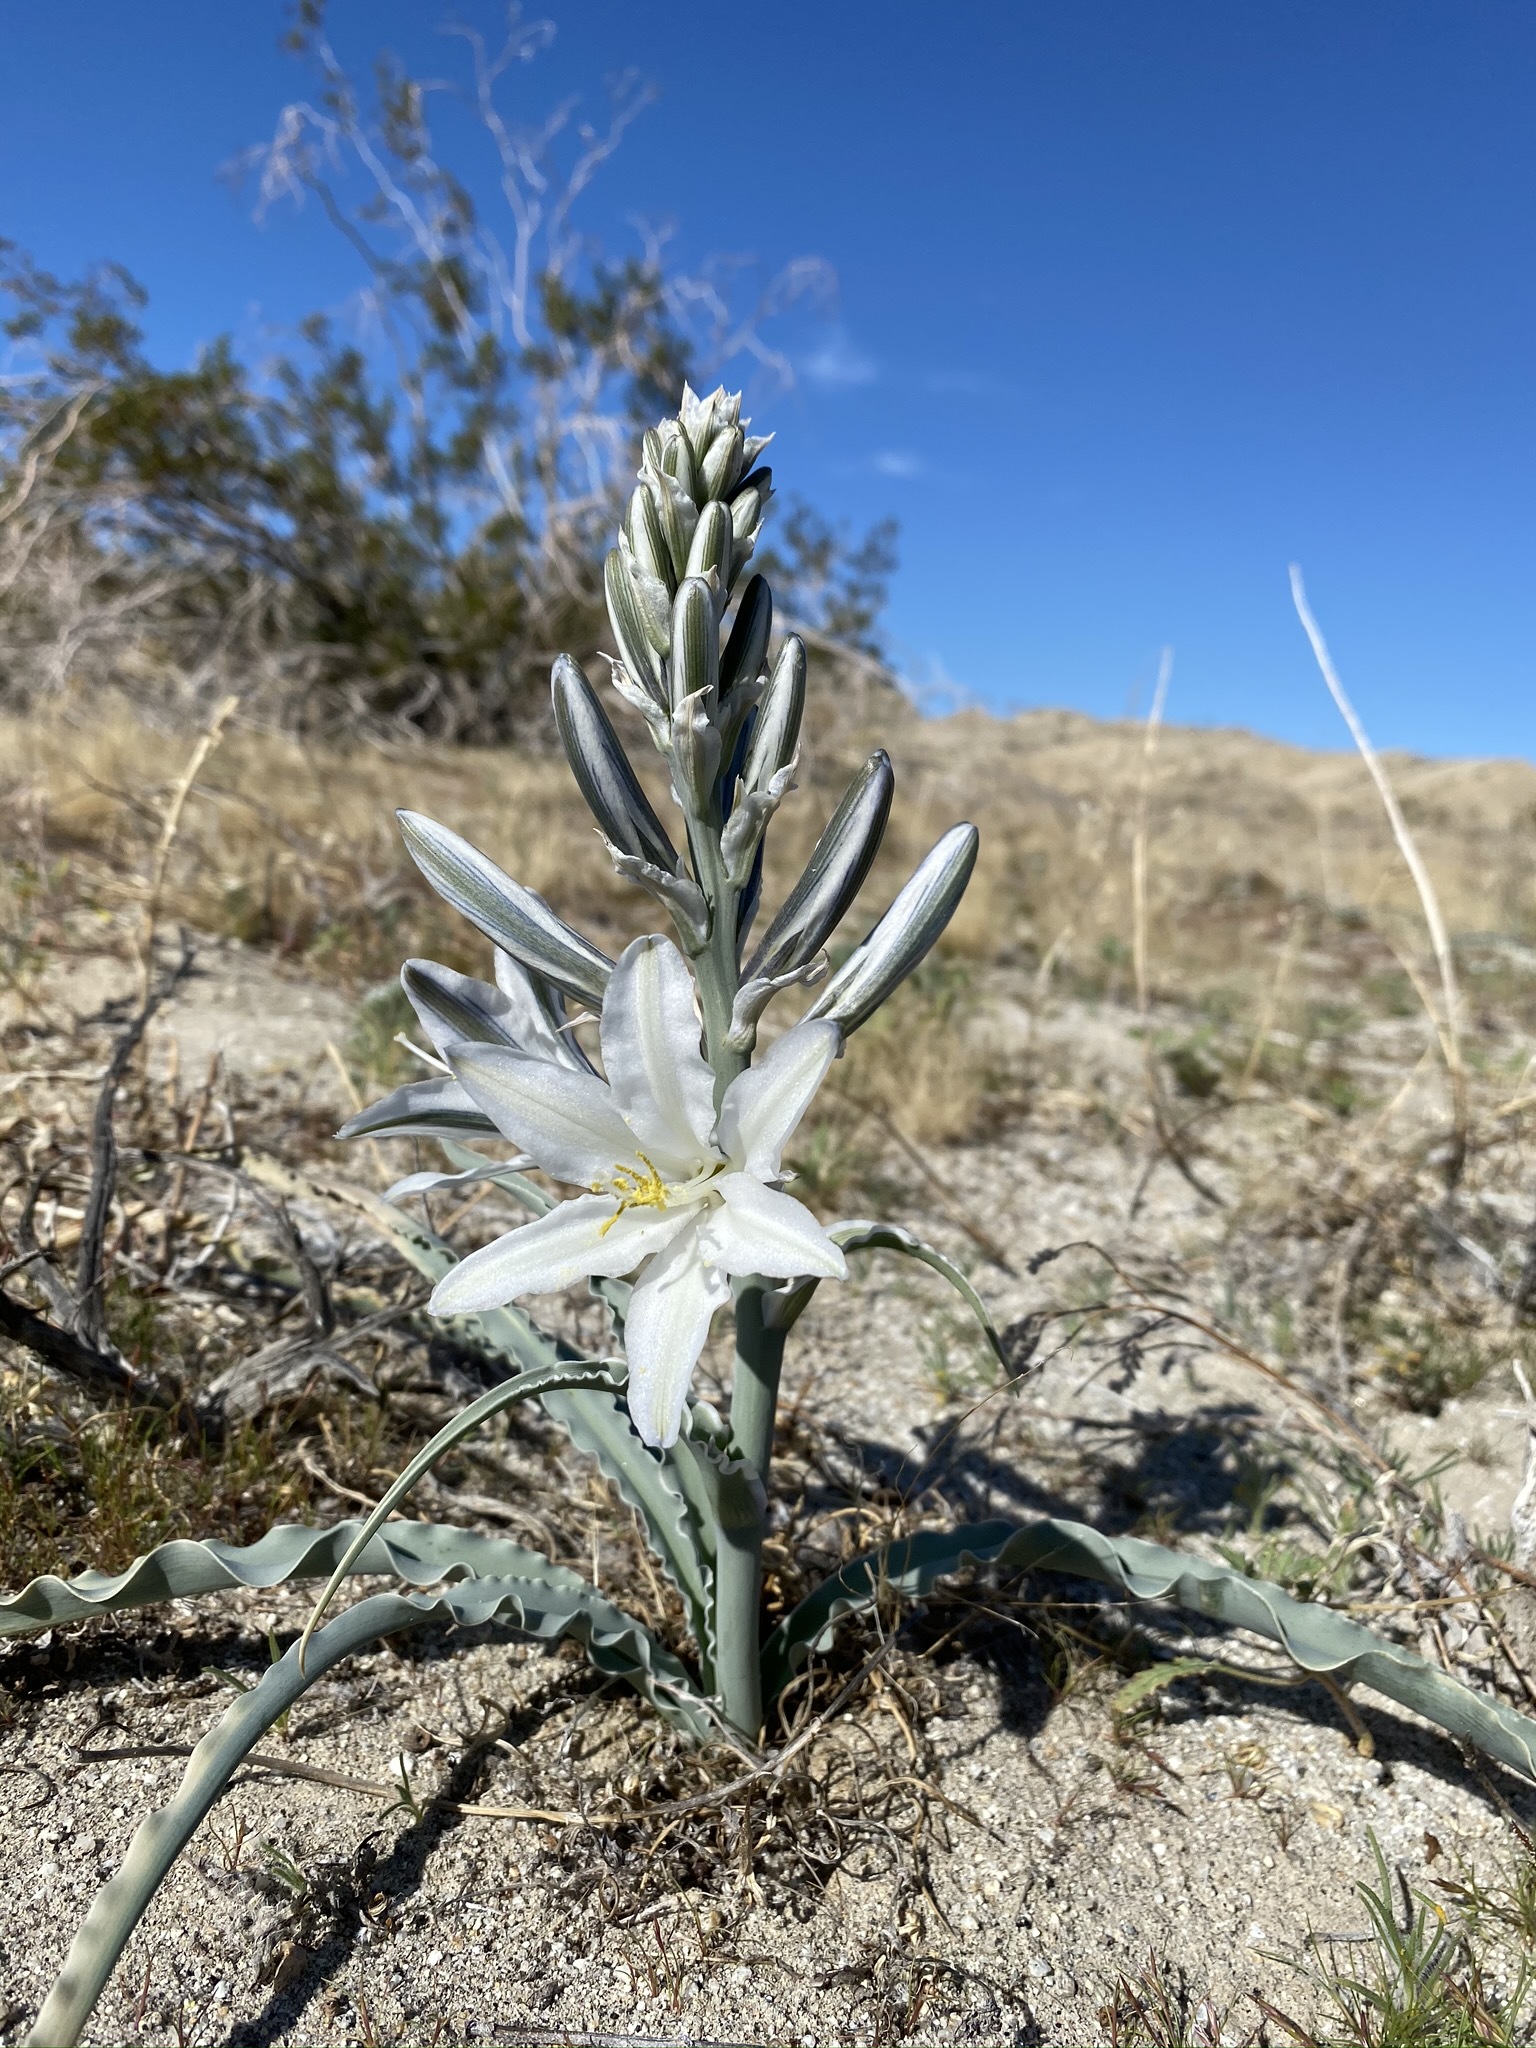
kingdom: Plantae
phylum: Tracheophyta
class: Liliopsida
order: Asparagales
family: Asparagaceae
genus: Hesperocallis
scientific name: Hesperocallis undulata
